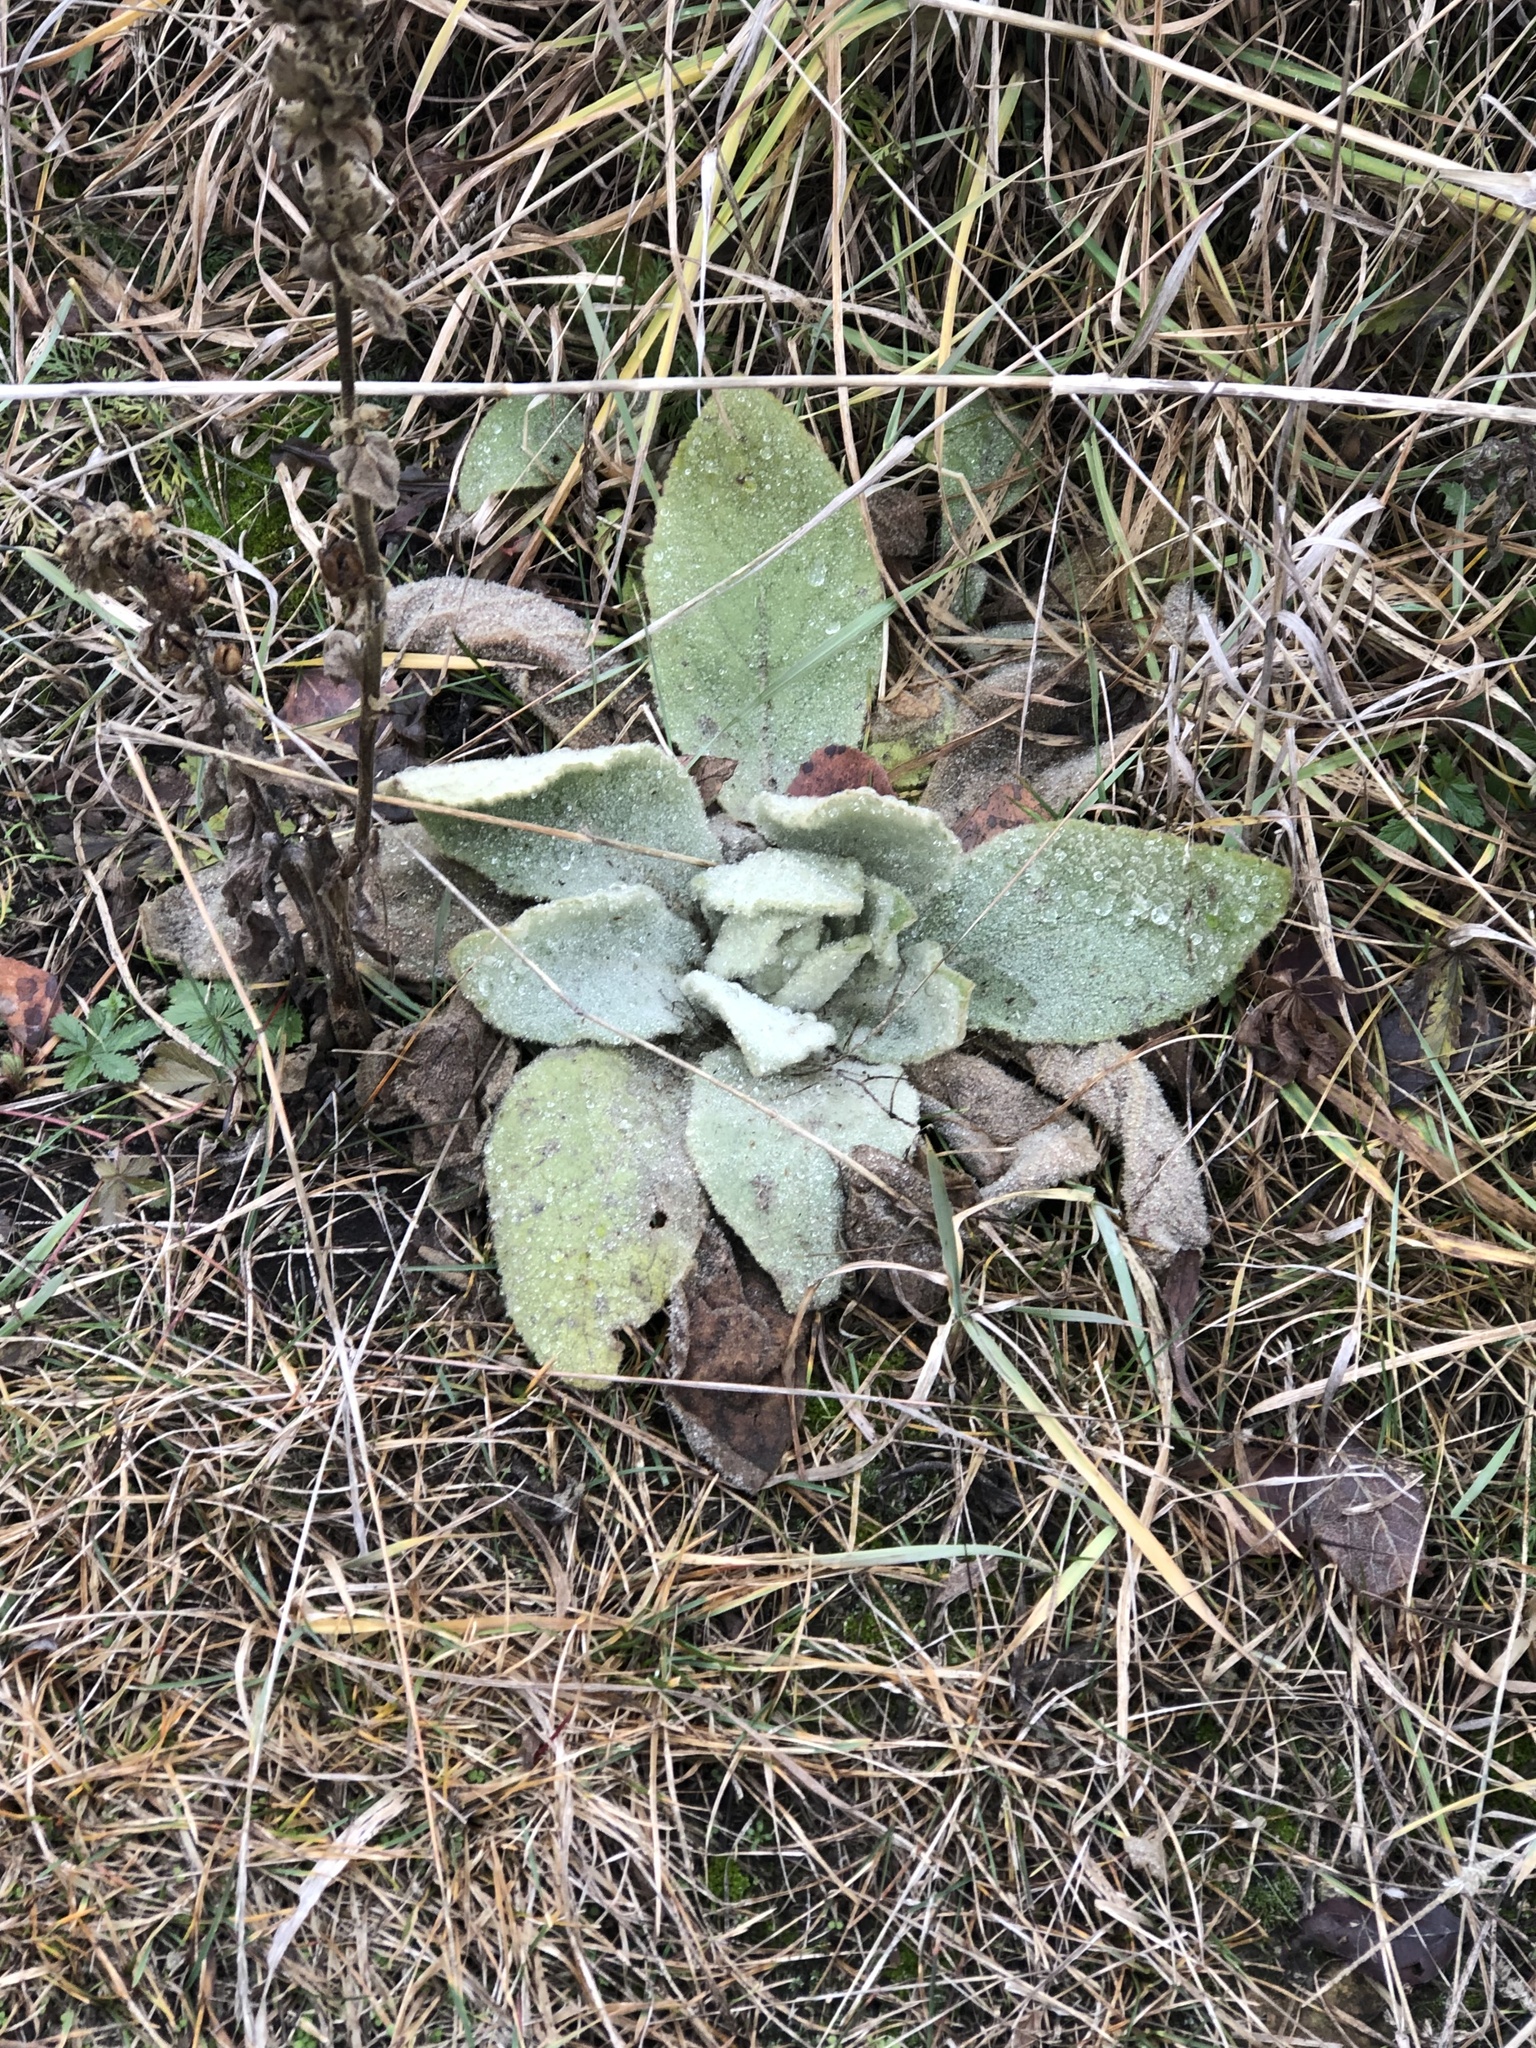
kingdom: Plantae
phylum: Tracheophyta
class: Magnoliopsida
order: Lamiales
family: Scrophulariaceae
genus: Verbascum
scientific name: Verbascum thapsus
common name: Common mullein
